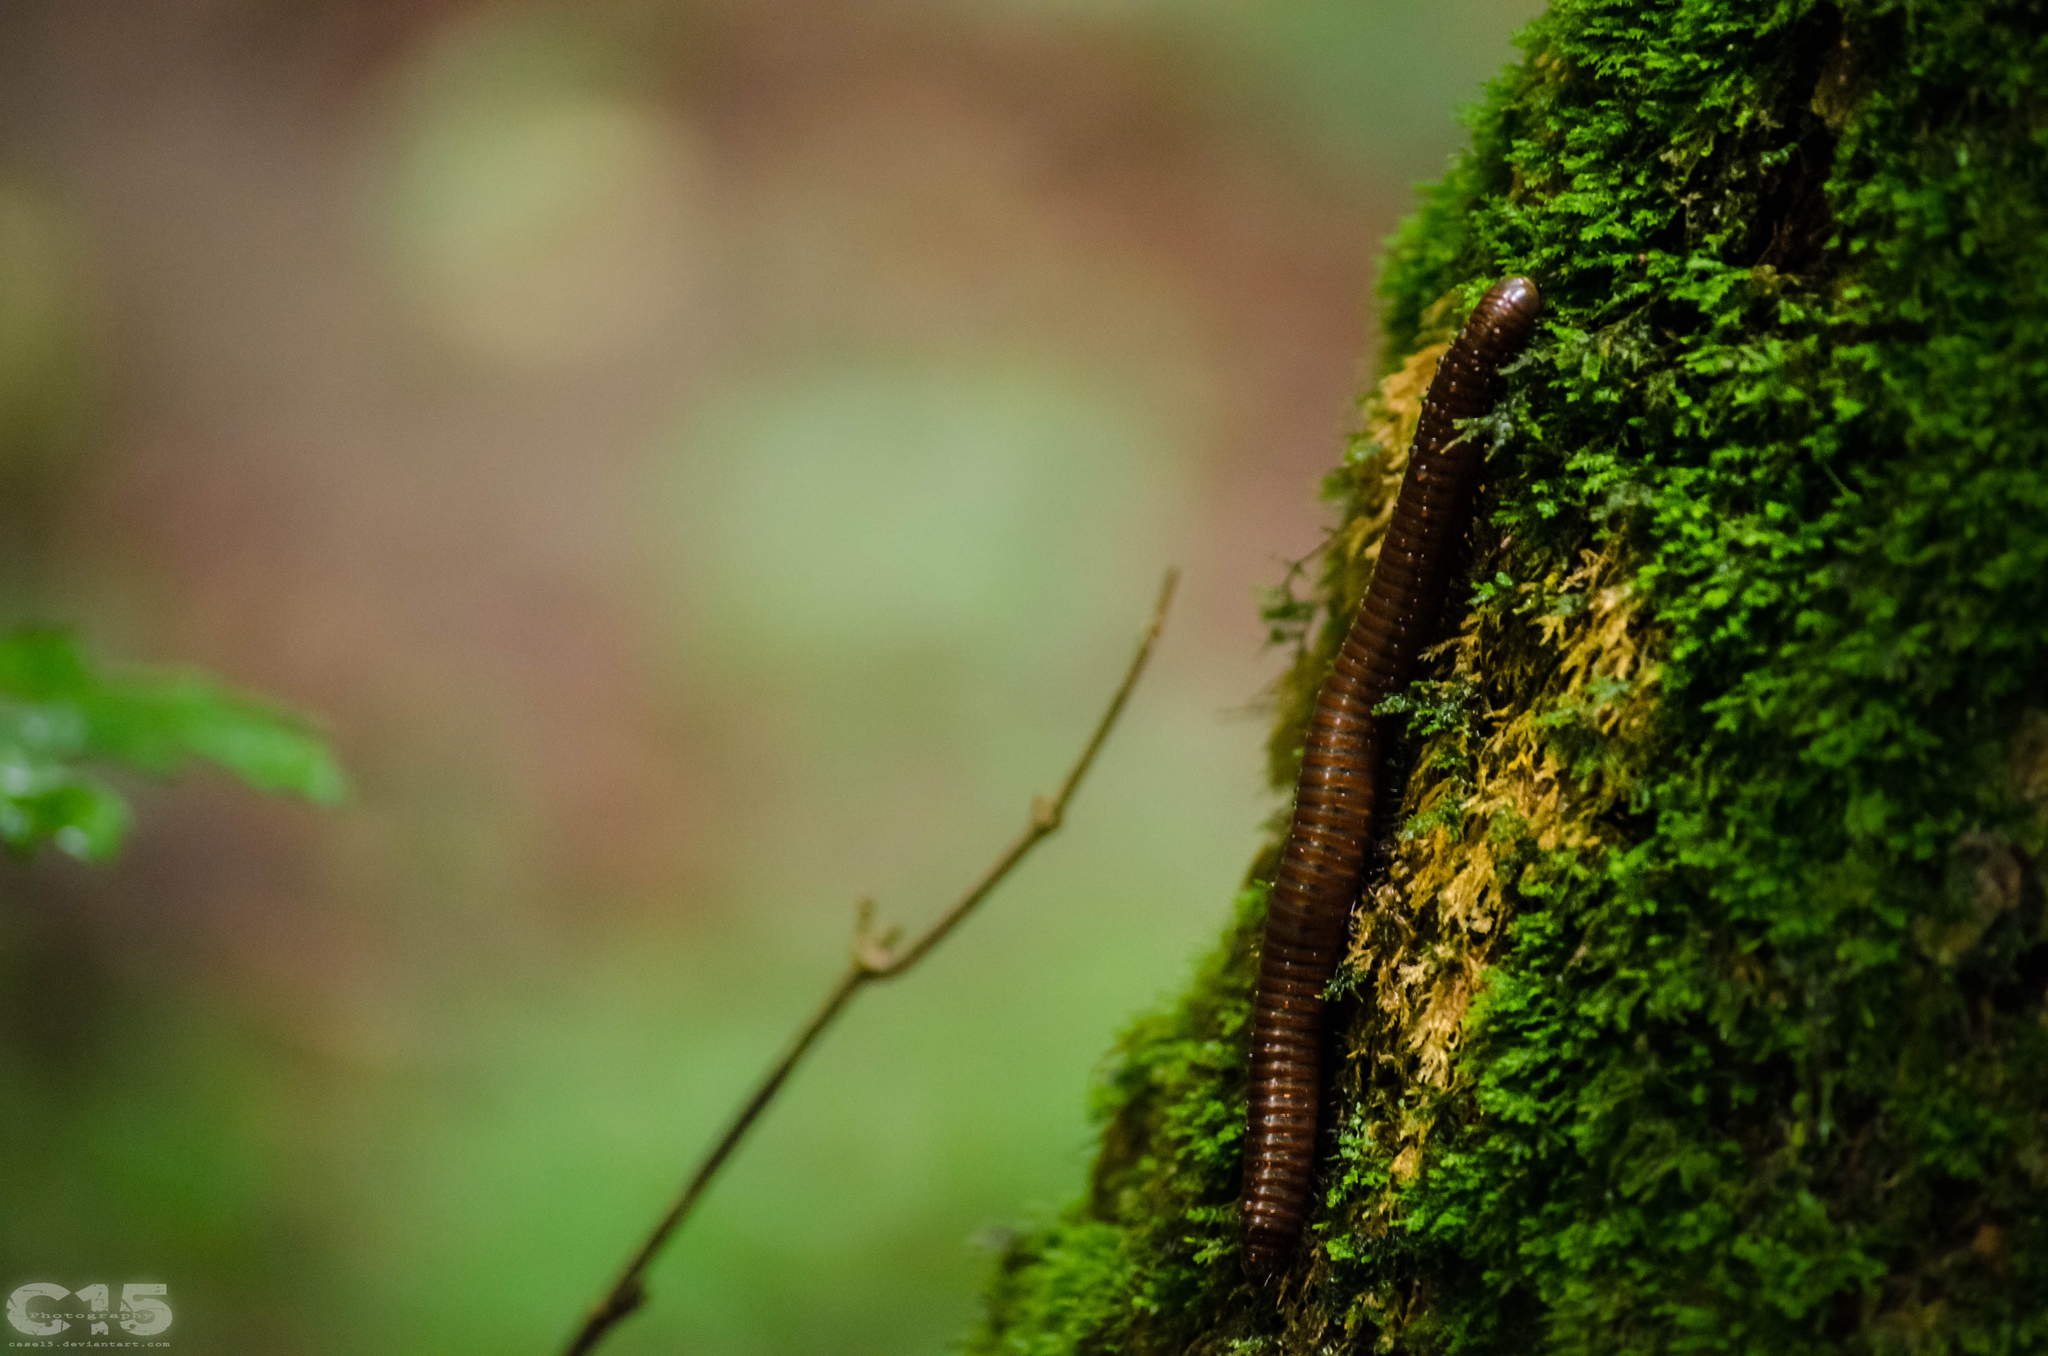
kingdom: Animalia
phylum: Arthropoda
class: Diplopoda
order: Julida
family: Julidae
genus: Pachyiulus
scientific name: Pachyiulus hungaricus
